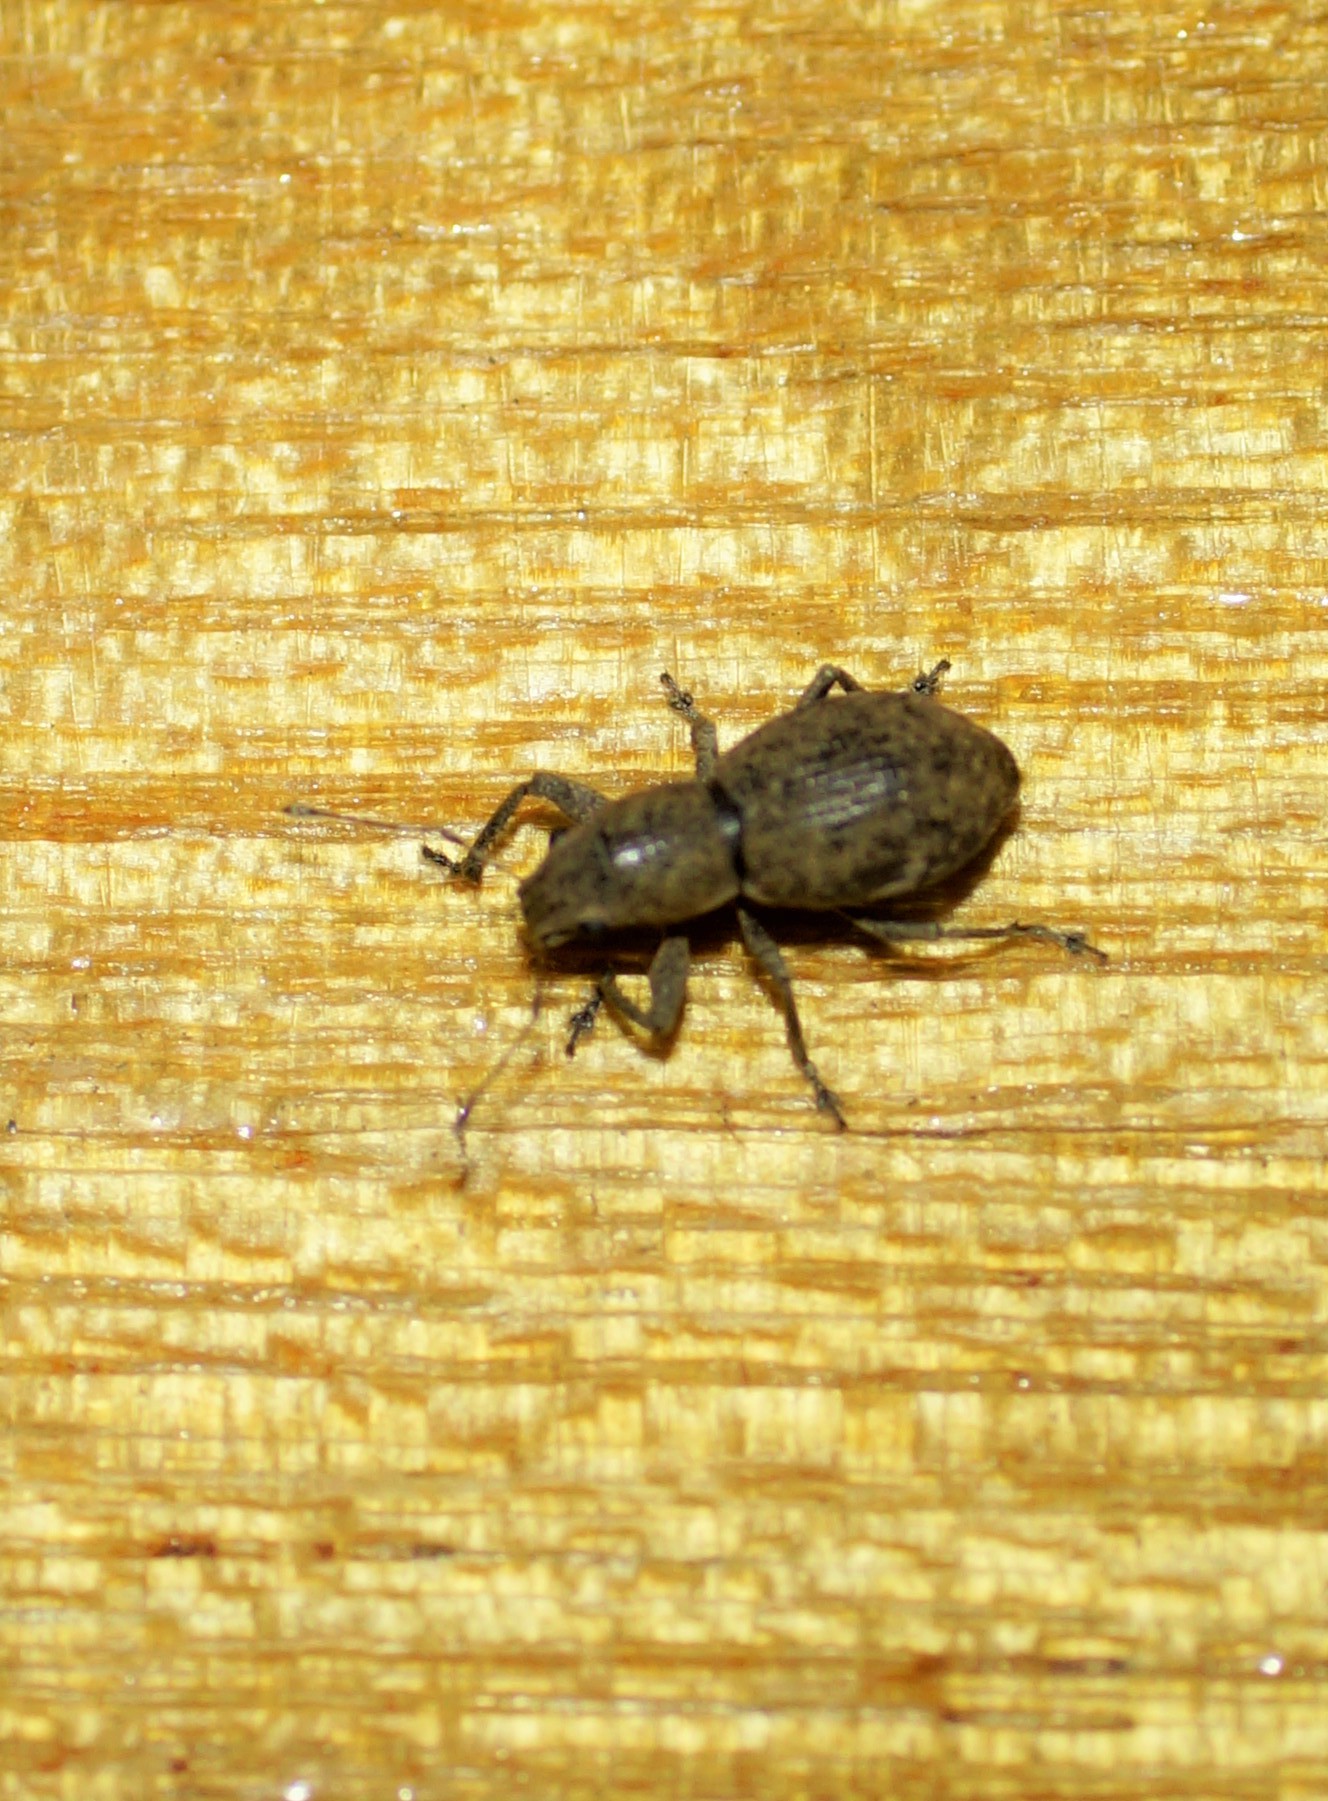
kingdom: Animalia
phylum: Arthropoda
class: Insecta
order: Coleoptera
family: Curculionidae
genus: Naupactus
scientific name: Naupactus cervinus
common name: Fuller rose beetle
